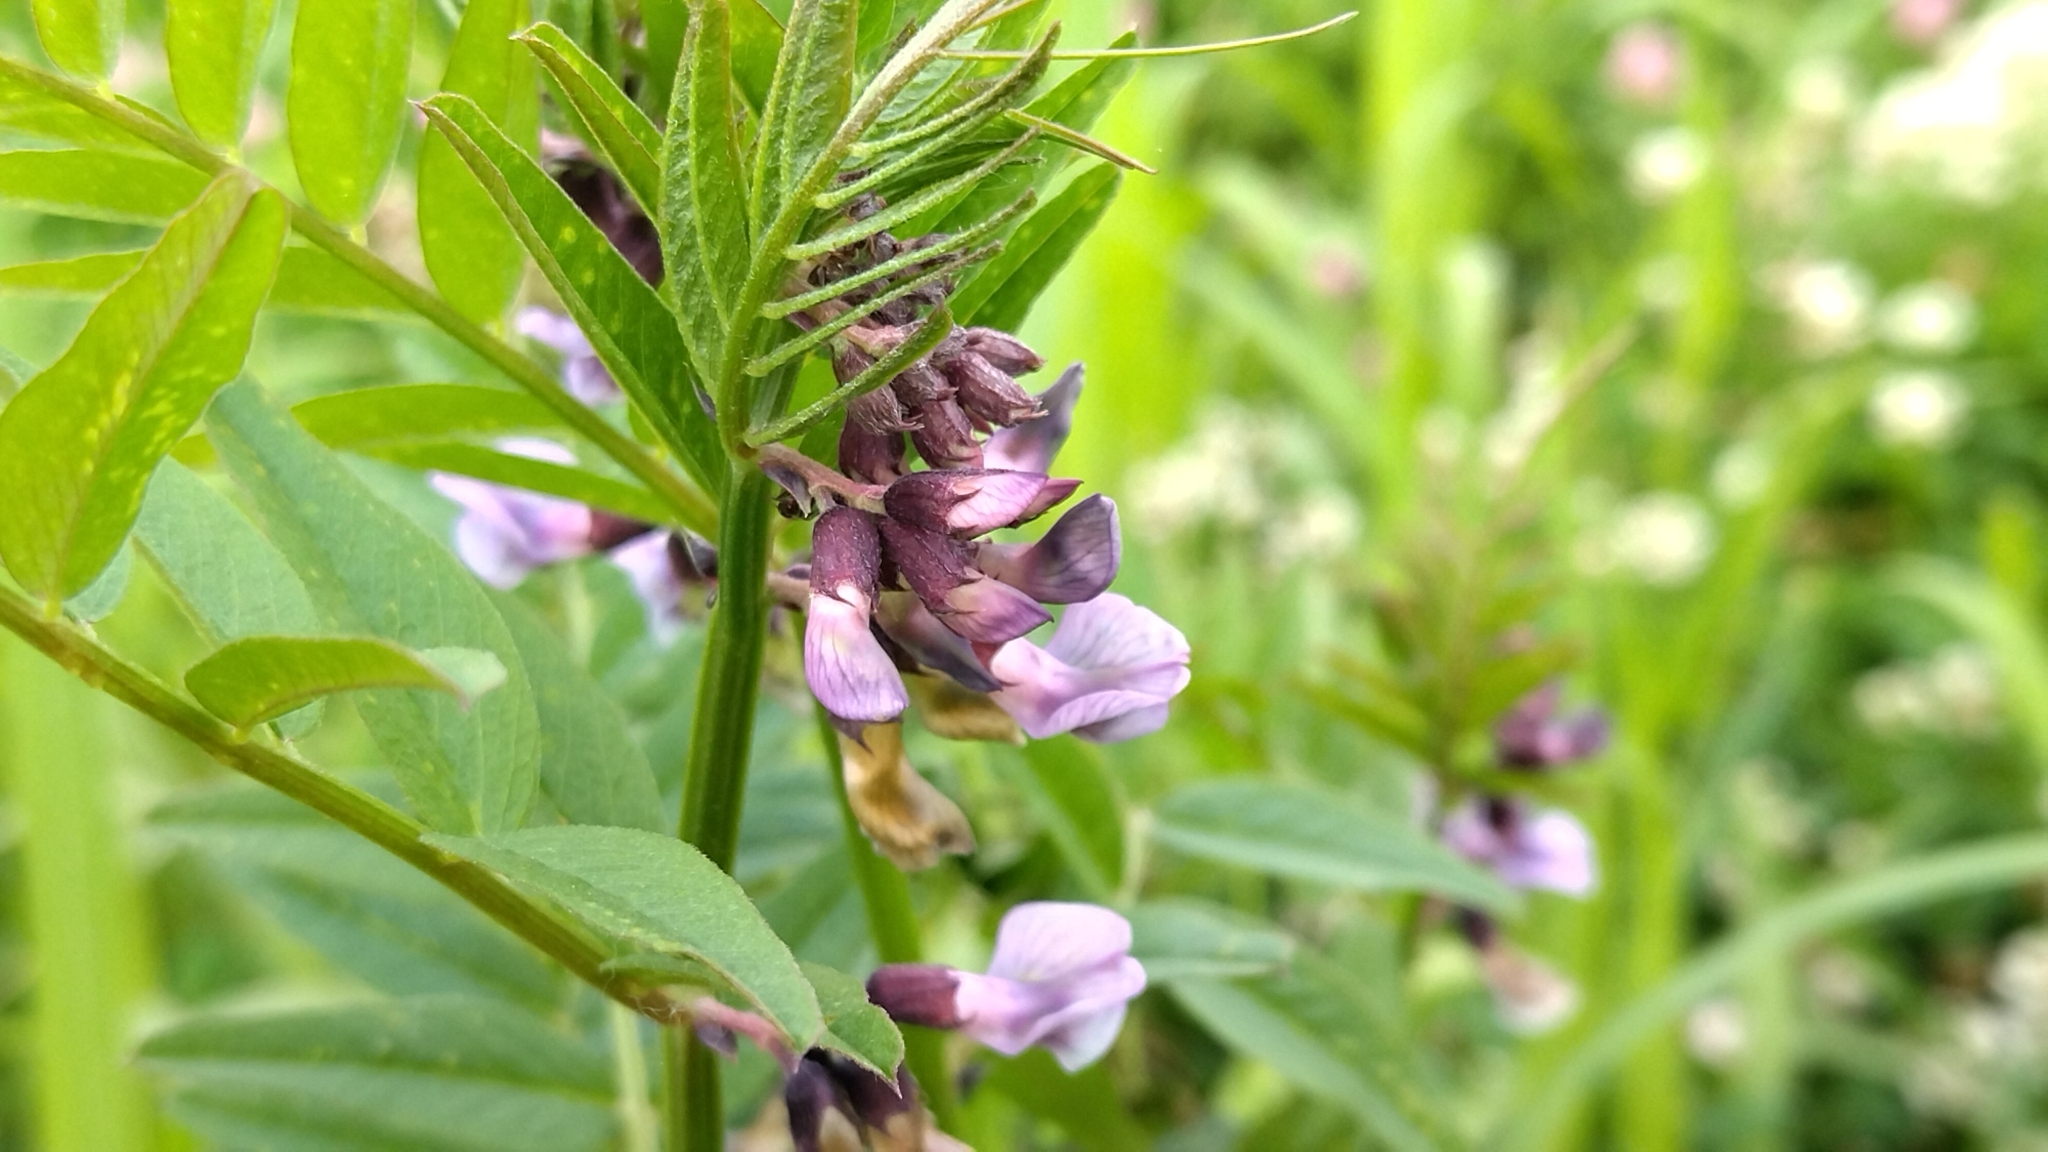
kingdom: Plantae
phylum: Tracheophyta
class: Magnoliopsida
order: Fabales
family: Fabaceae
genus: Vicia
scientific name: Vicia sepium
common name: Bush vetch
